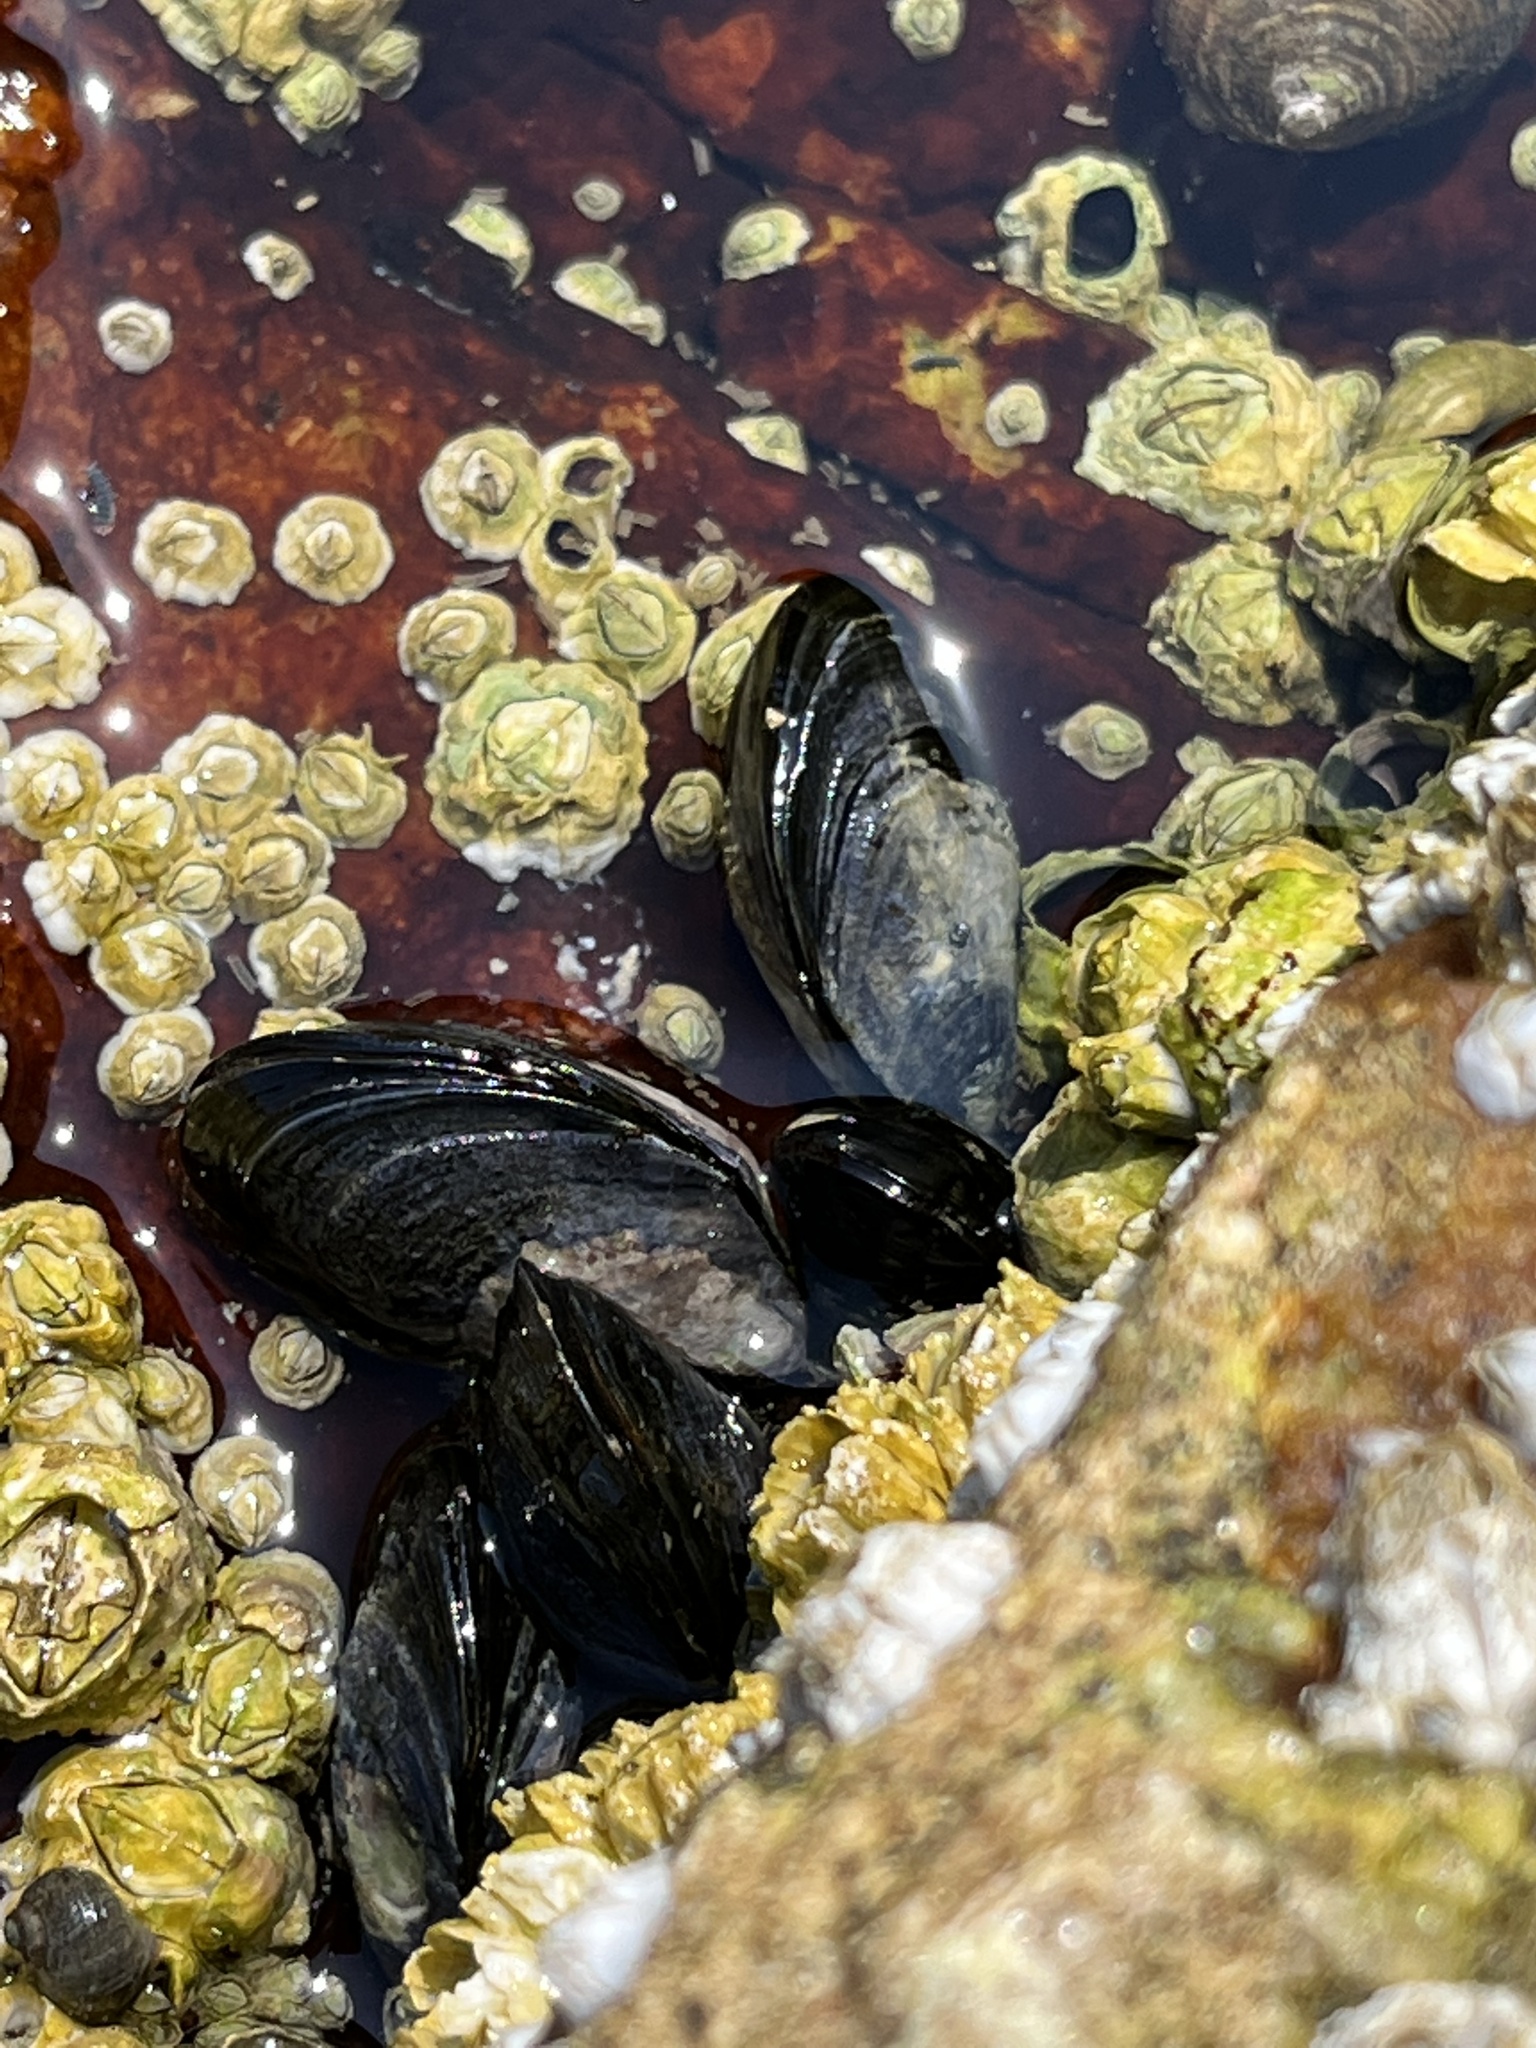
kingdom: Animalia
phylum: Mollusca
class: Bivalvia
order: Mytilida
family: Mytilidae
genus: Mytilus
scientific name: Mytilus edulis
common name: Blue mussel
